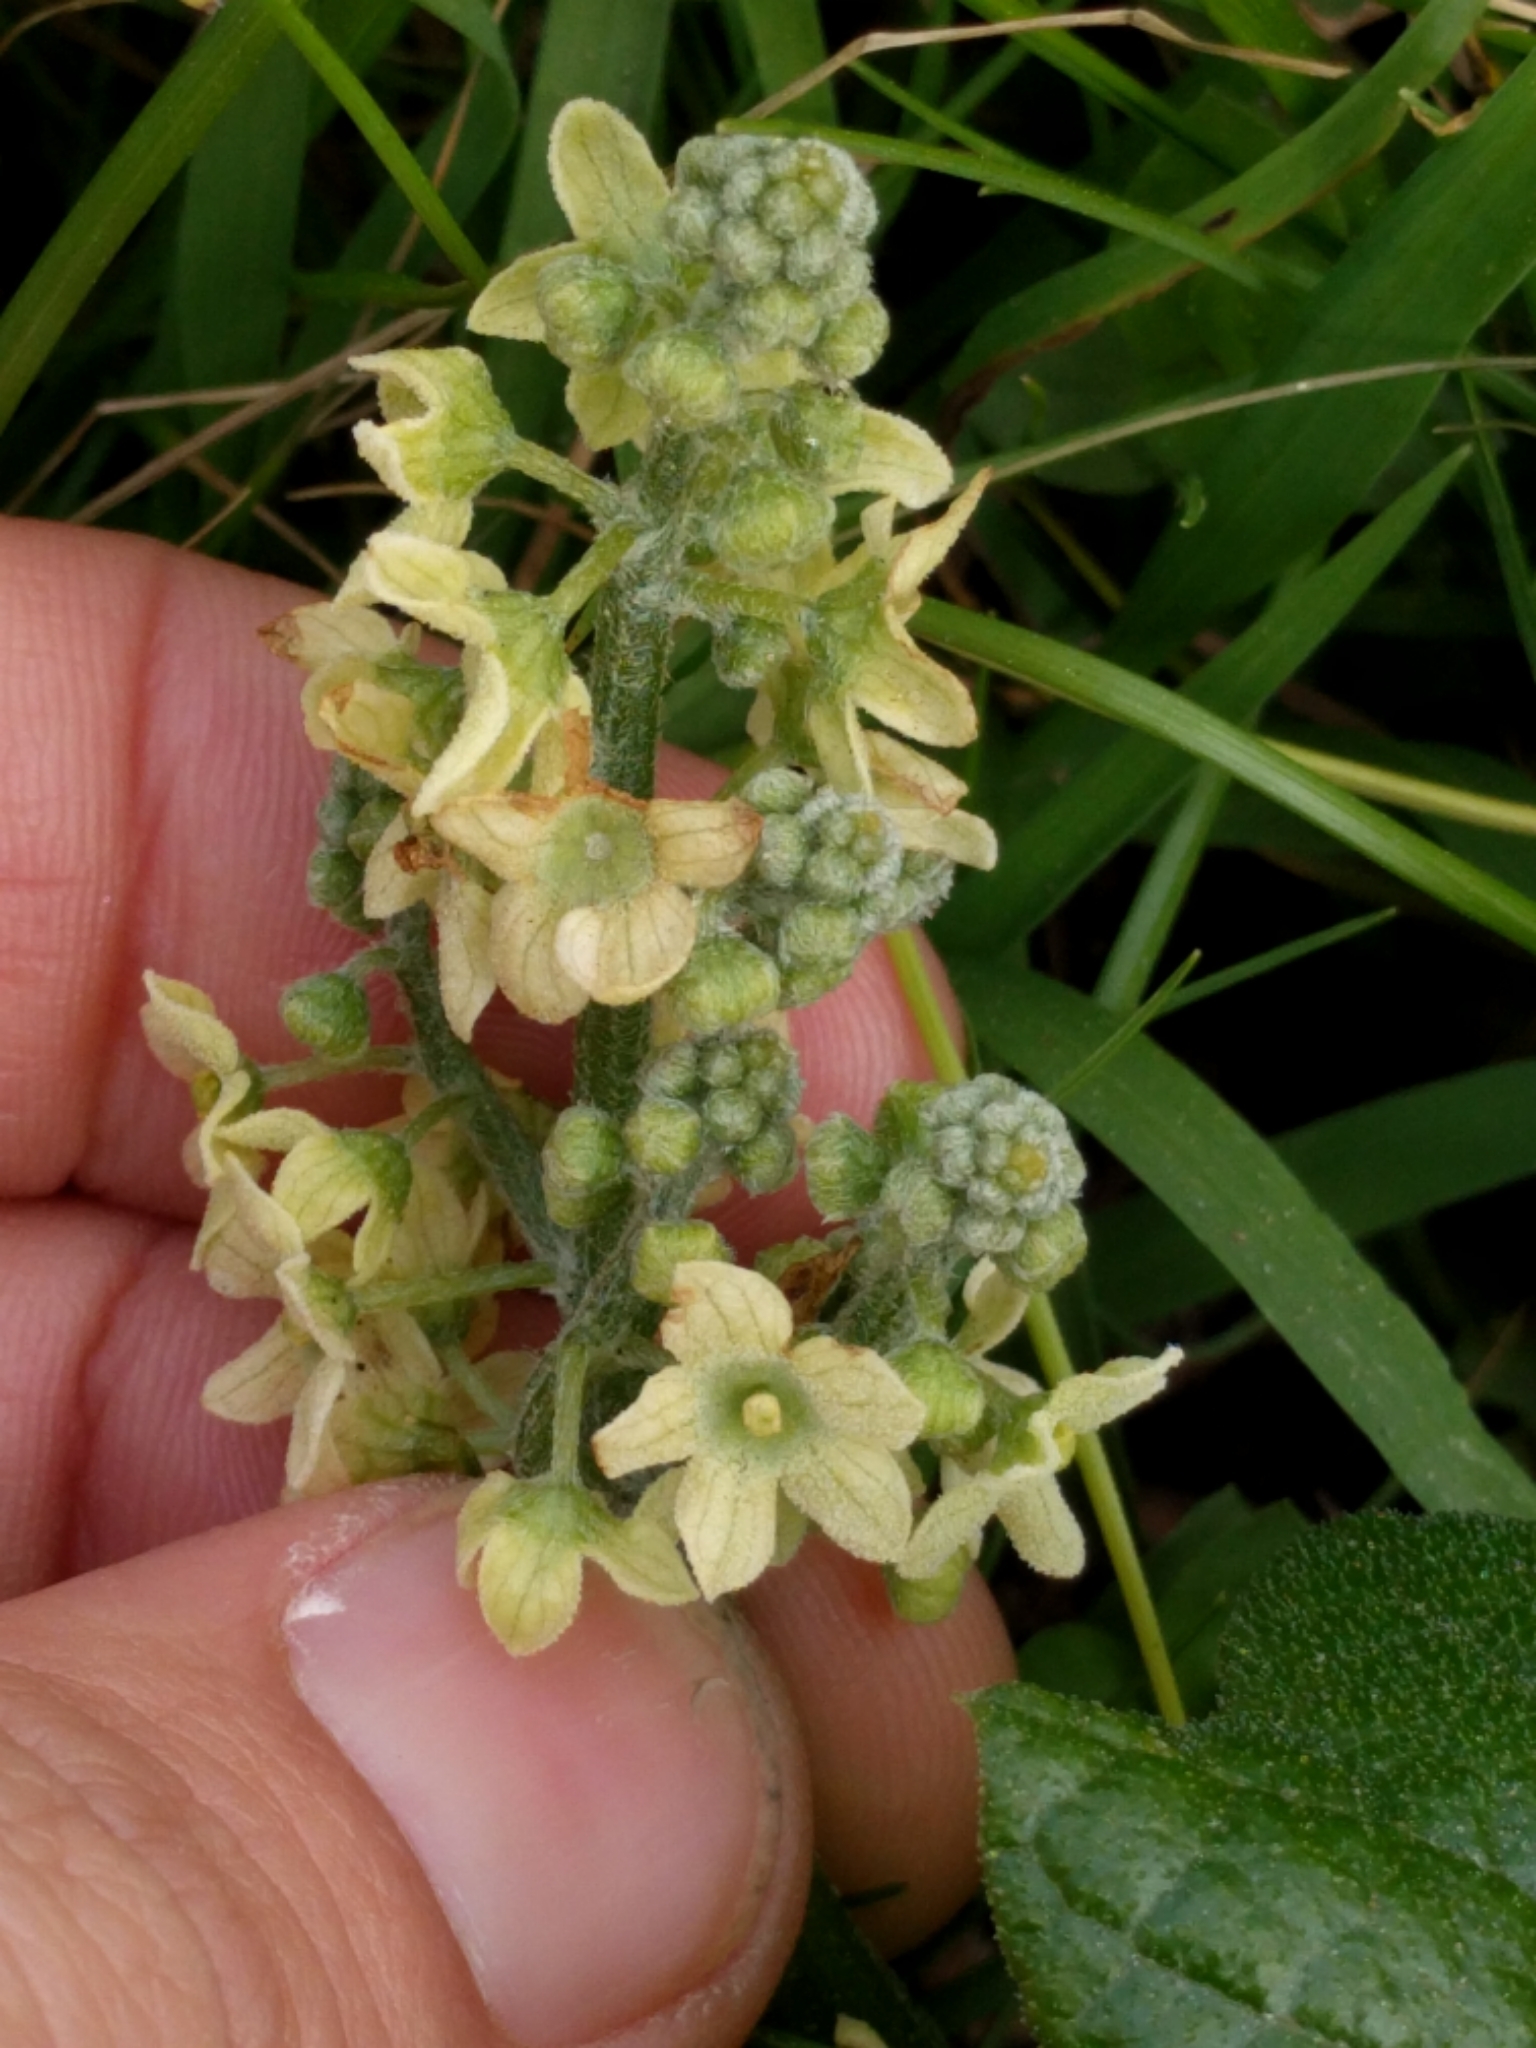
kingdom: Plantae
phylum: Tracheophyta
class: Magnoliopsida
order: Cucurbitales
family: Cucurbitaceae
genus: Marah
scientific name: Marah fabacea
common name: California manroot
